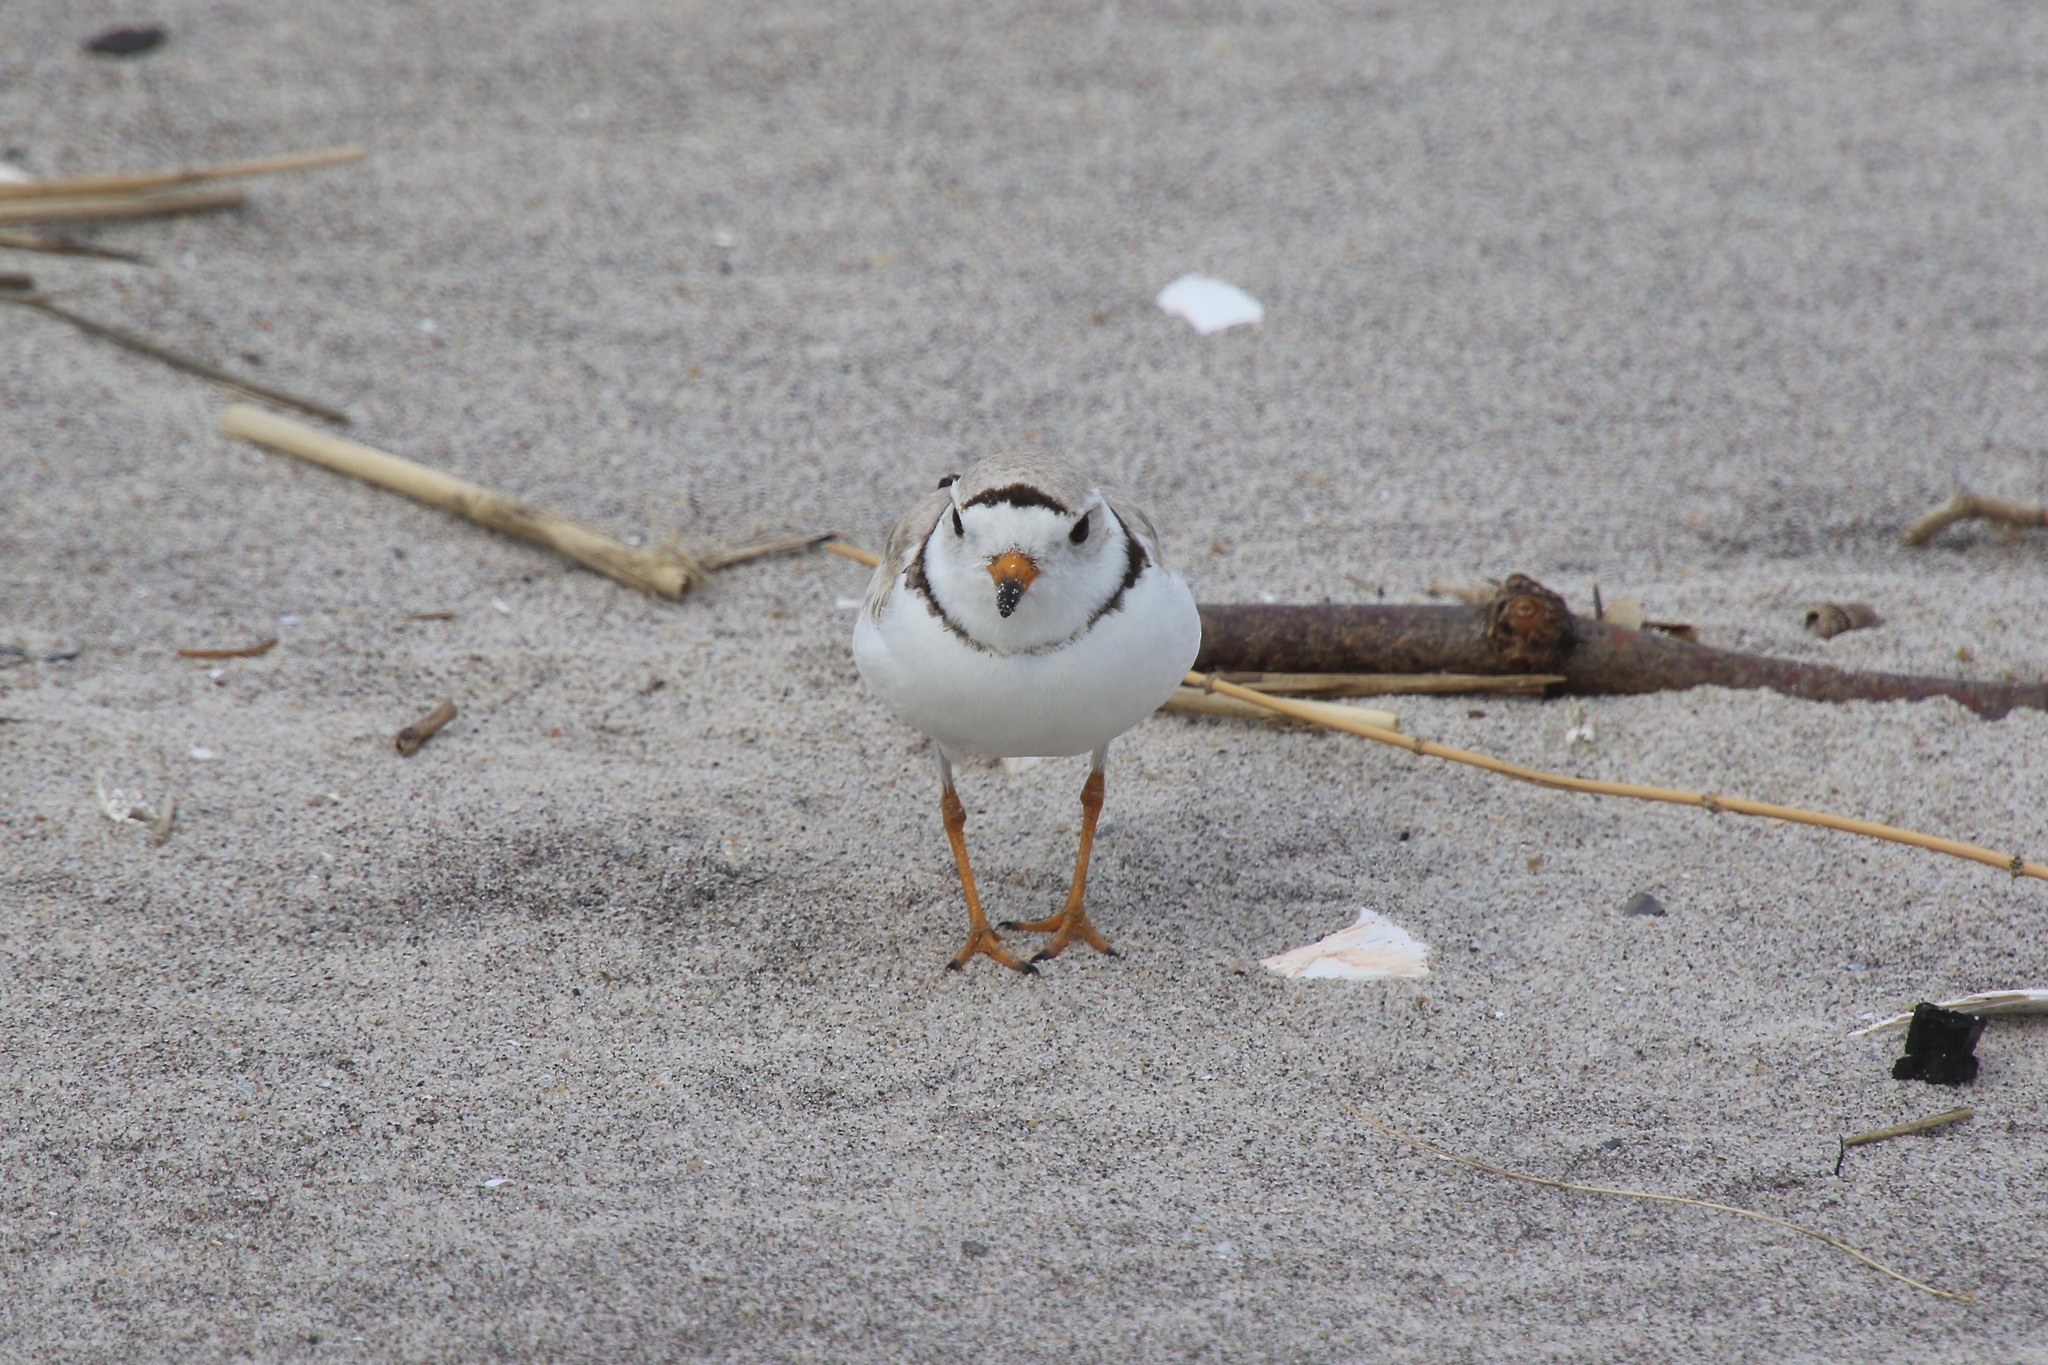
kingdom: Animalia
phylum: Chordata
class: Aves
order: Charadriiformes
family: Charadriidae
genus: Charadrius
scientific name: Charadrius melodus
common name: Piping plover
